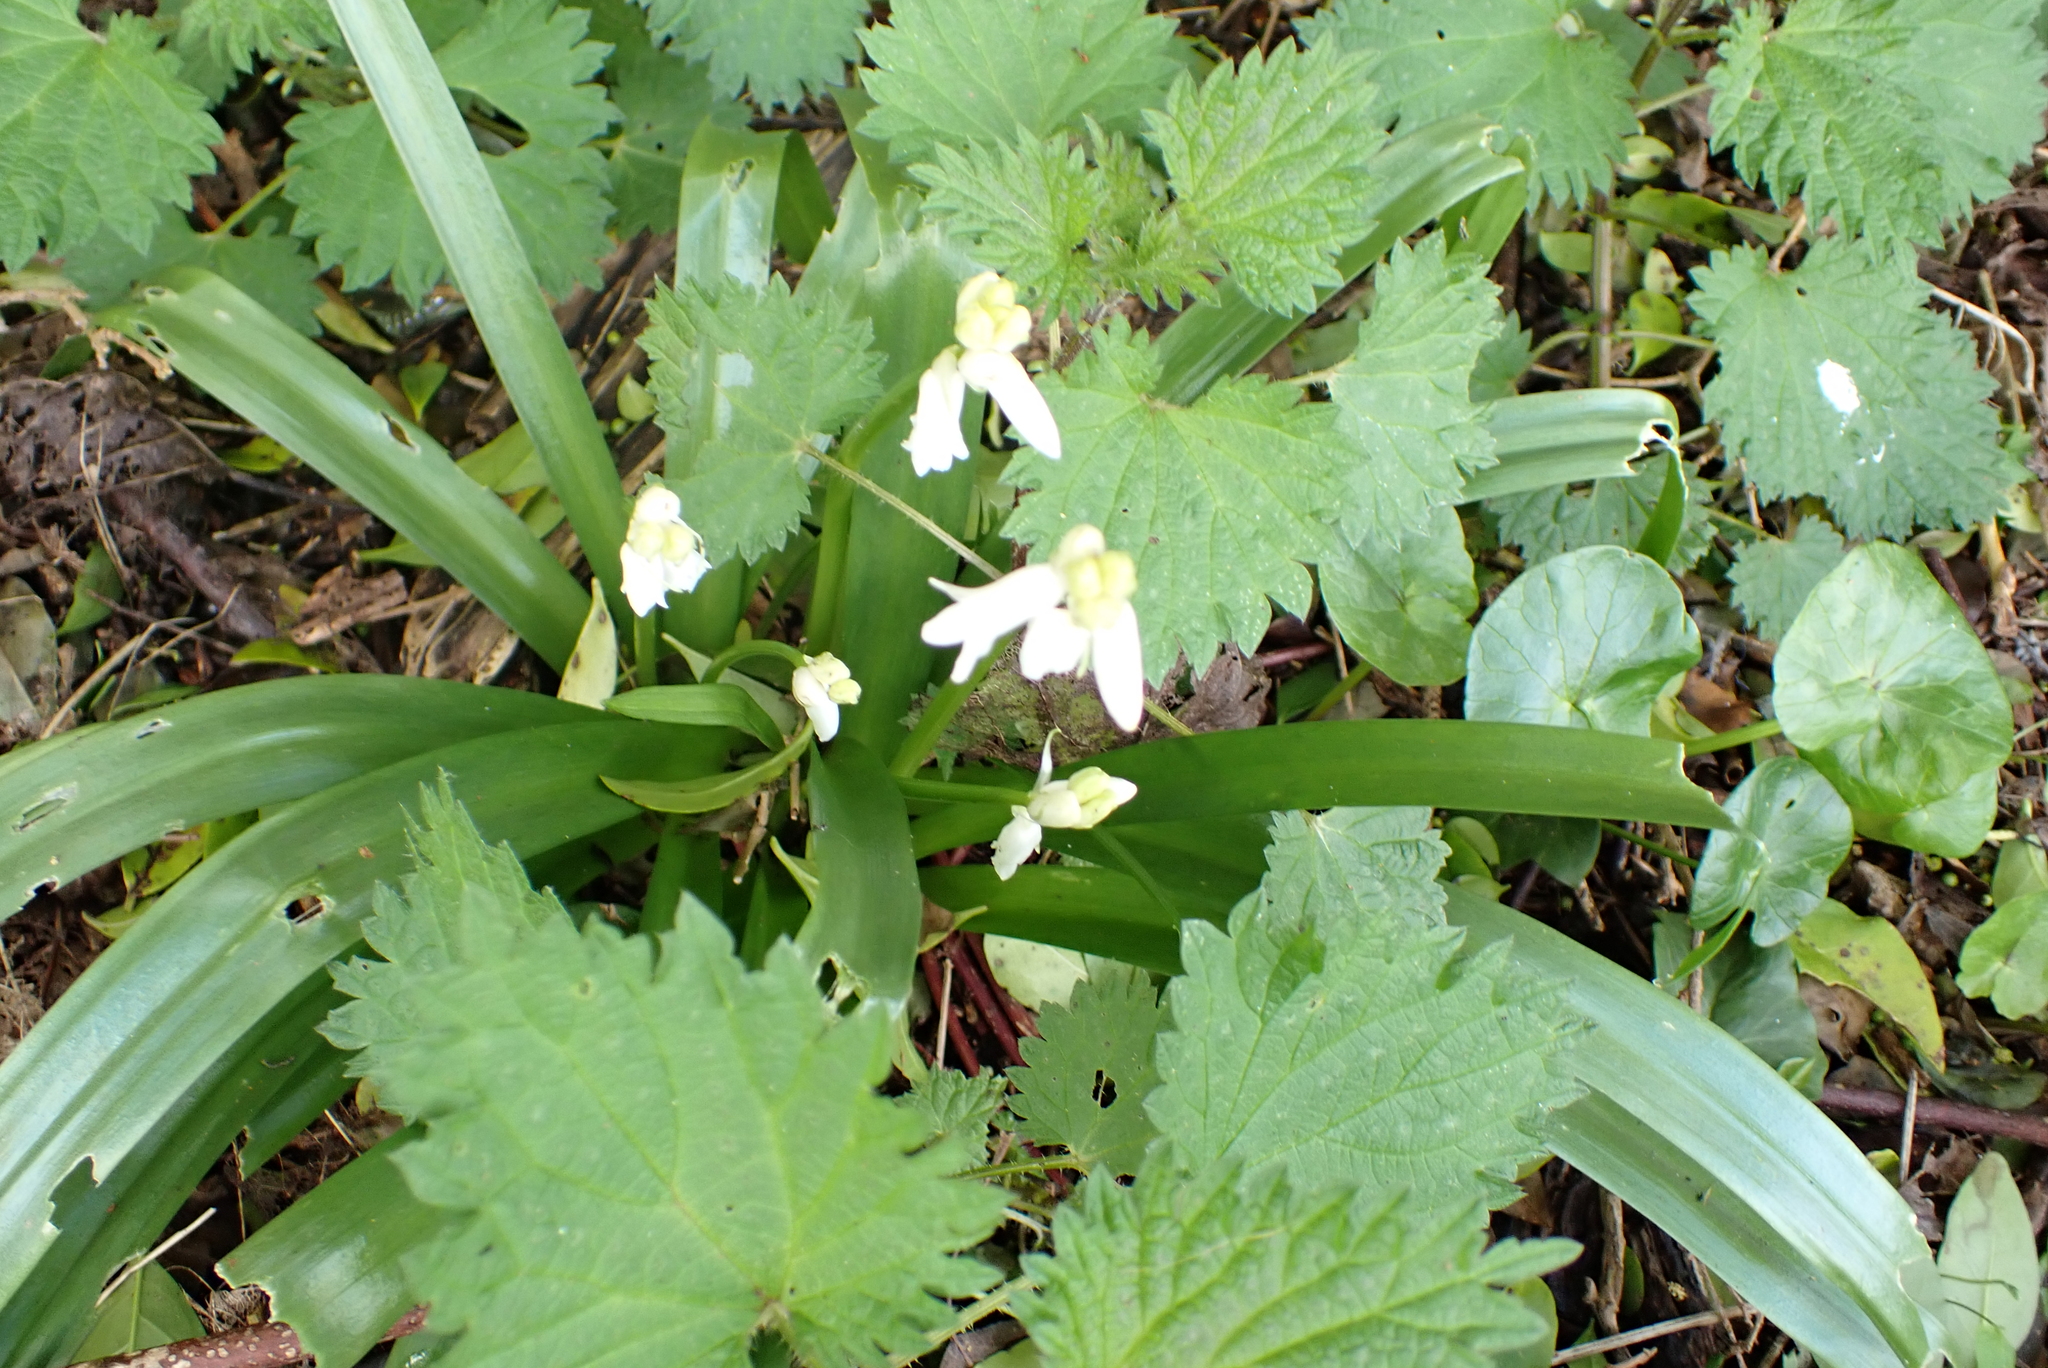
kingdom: Plantae
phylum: Tracheophyta
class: Liliopsida
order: Asparagales
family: Asparagaceae
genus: Hyacinthoides
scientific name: Hyacinthoides hispanica
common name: Spanish bluebell
